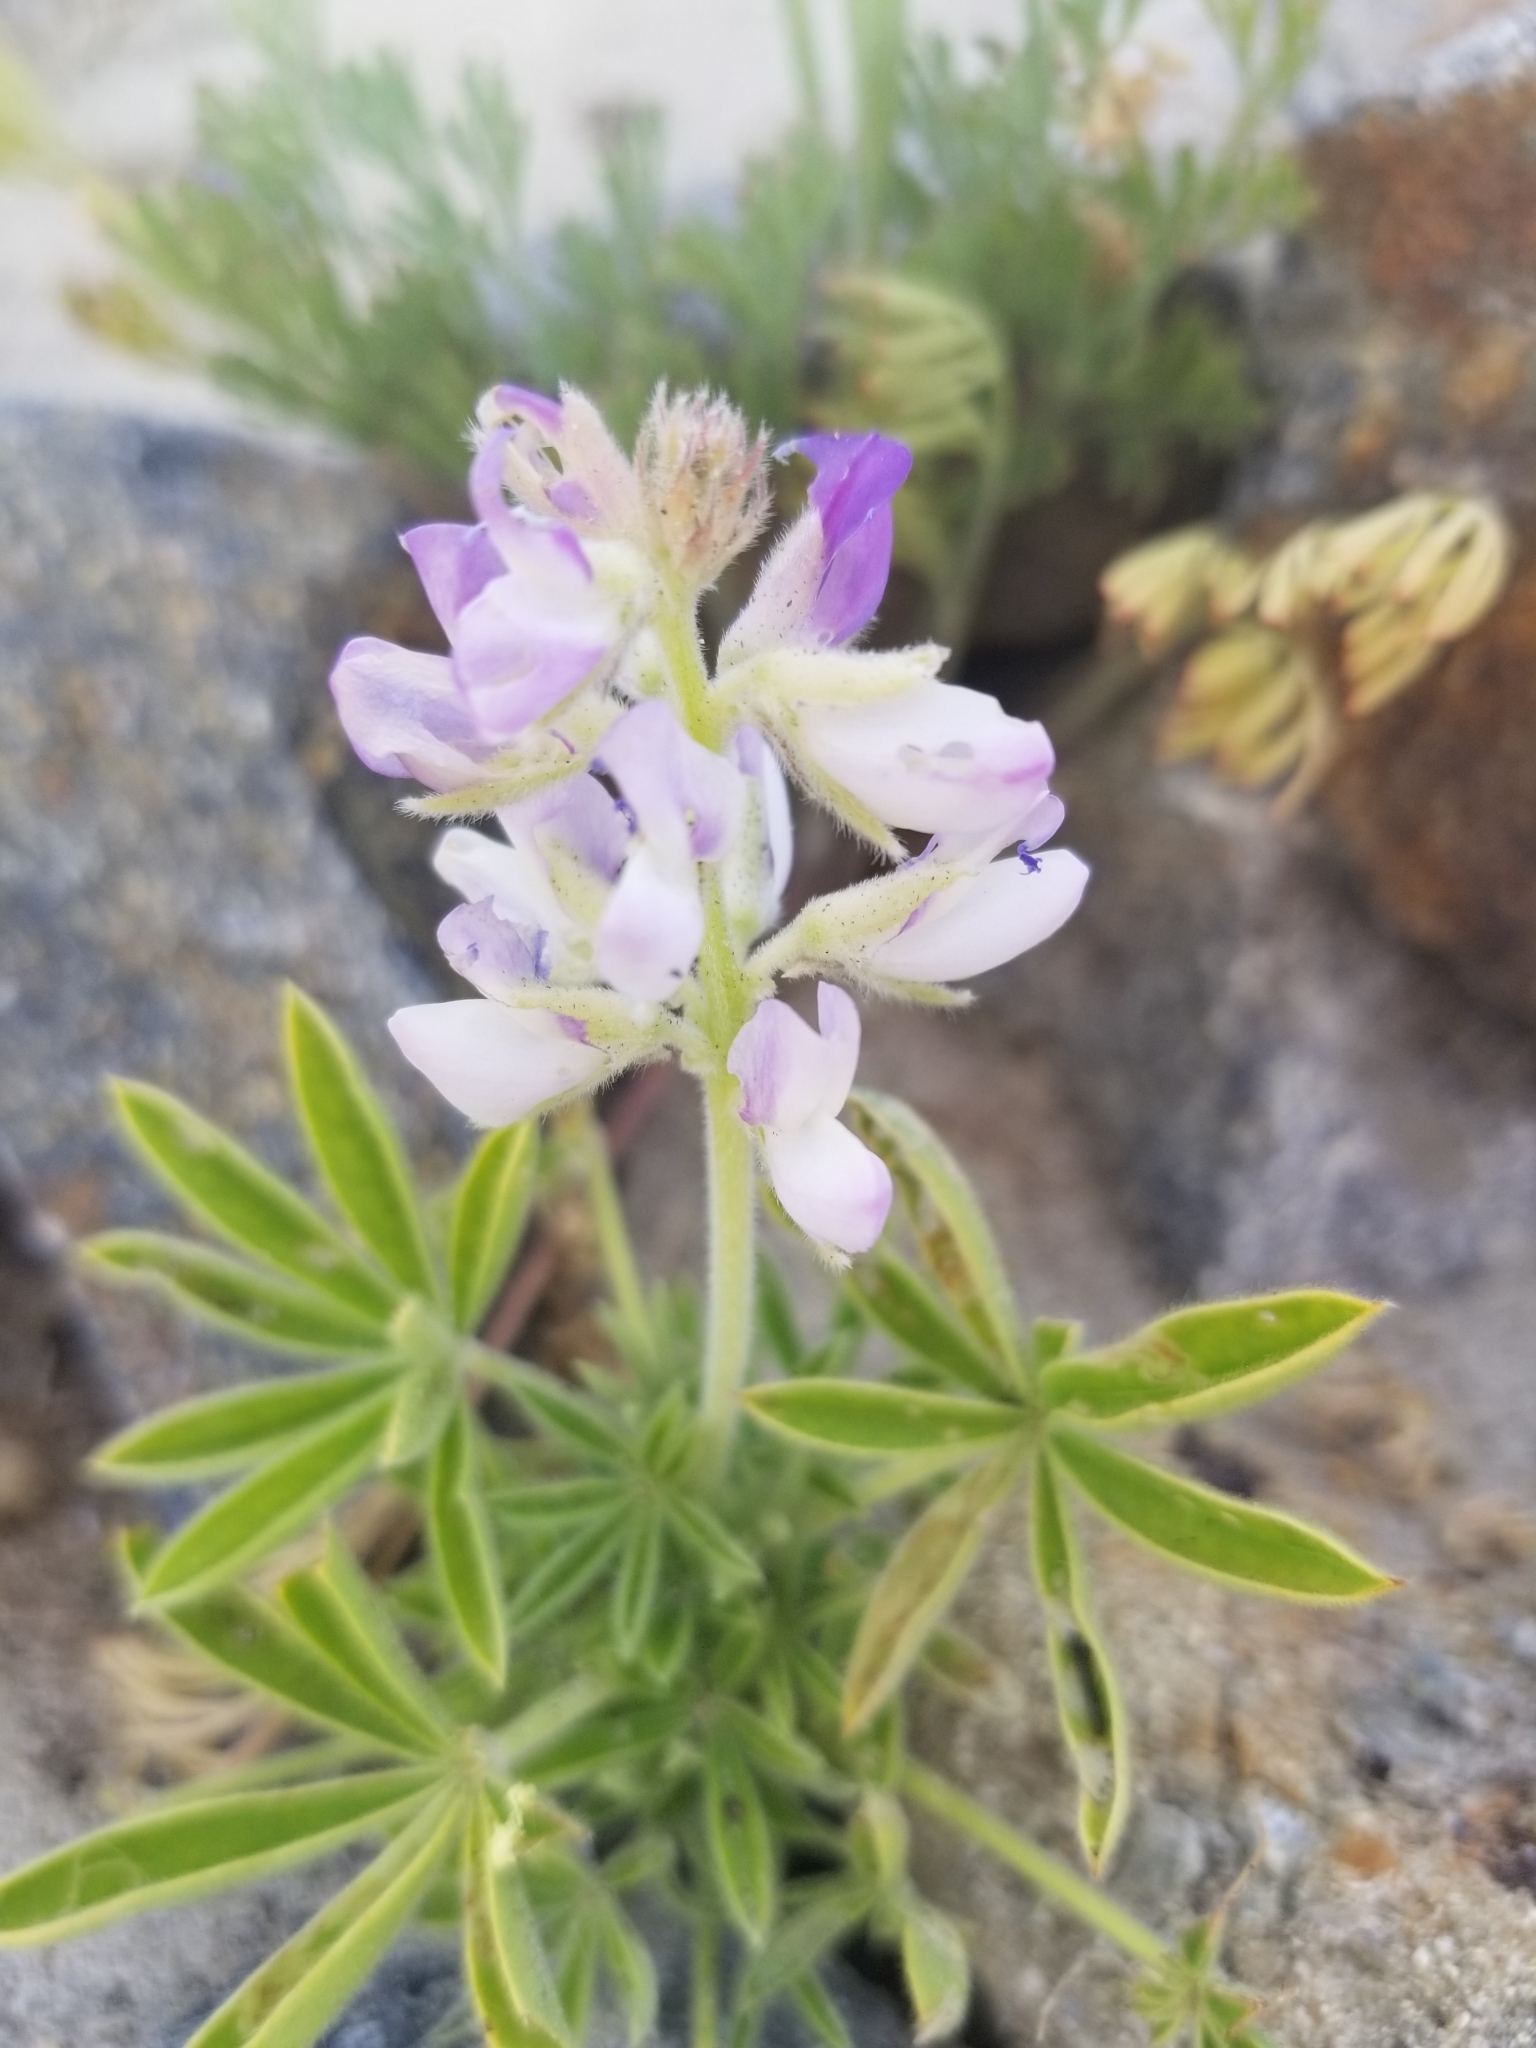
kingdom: Plantae
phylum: Tracheophyta
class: Magnoliopsida
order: Fabales
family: Fabaceae
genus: Lupinus
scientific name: Lupinus arizonicus
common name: Arizona lupine
